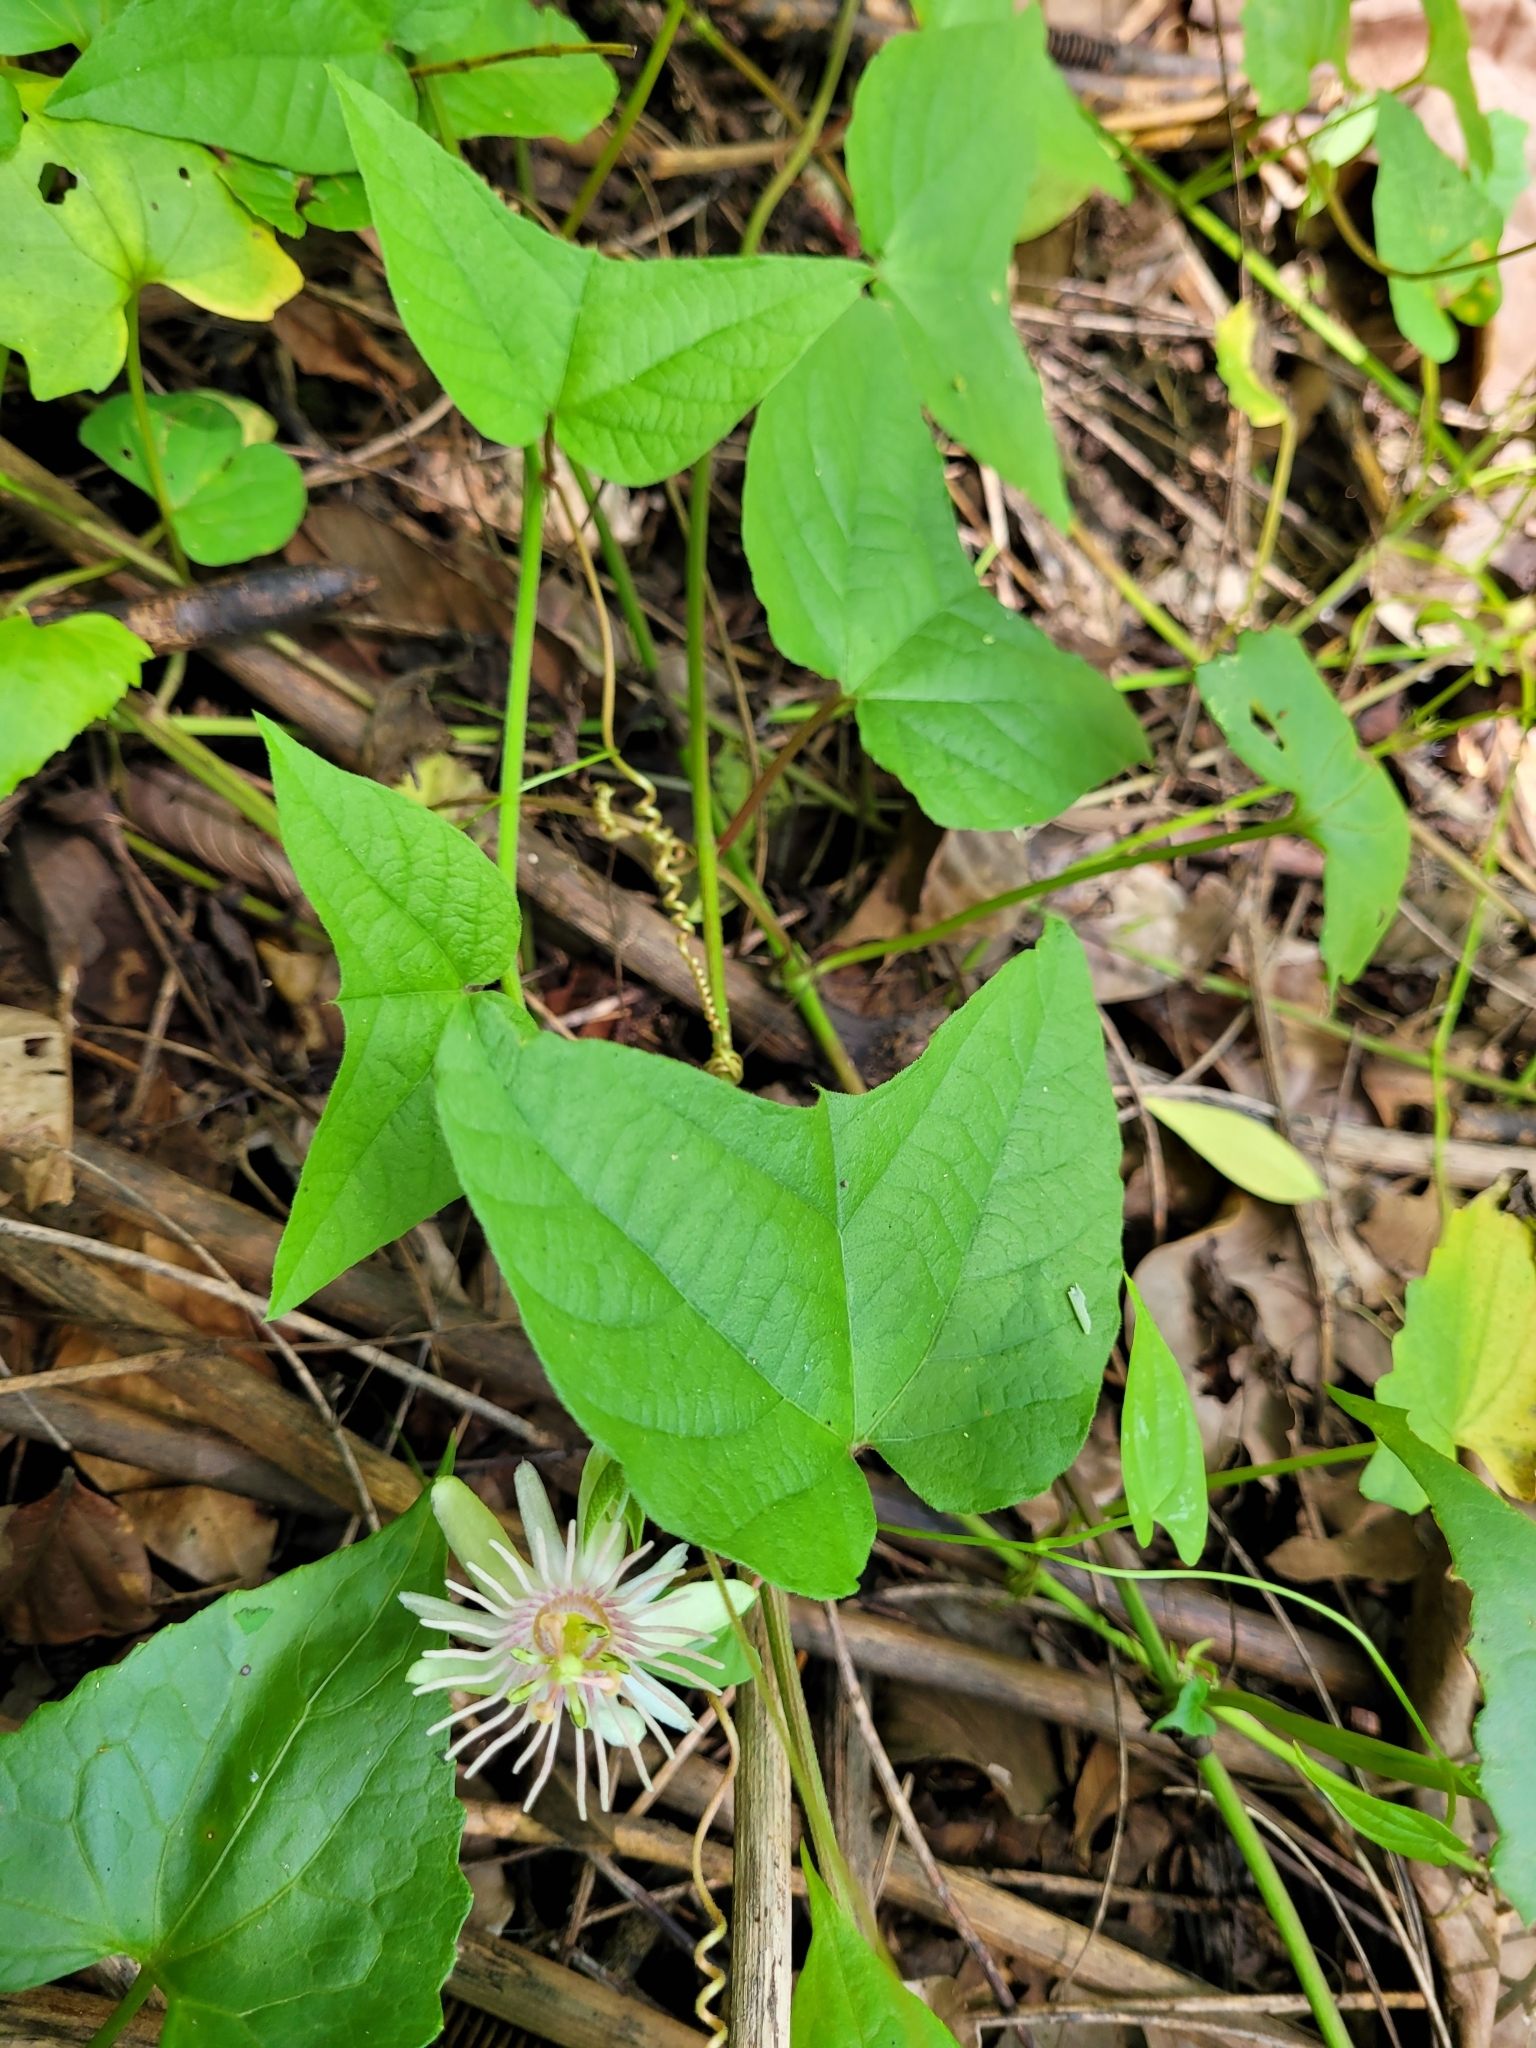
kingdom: Plantae
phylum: Tracheophyta
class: Magnoliopsida
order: Malpighiales
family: Passifloraceae
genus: Passiflora
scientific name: Passiflora rubra
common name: Snakeberry vine
